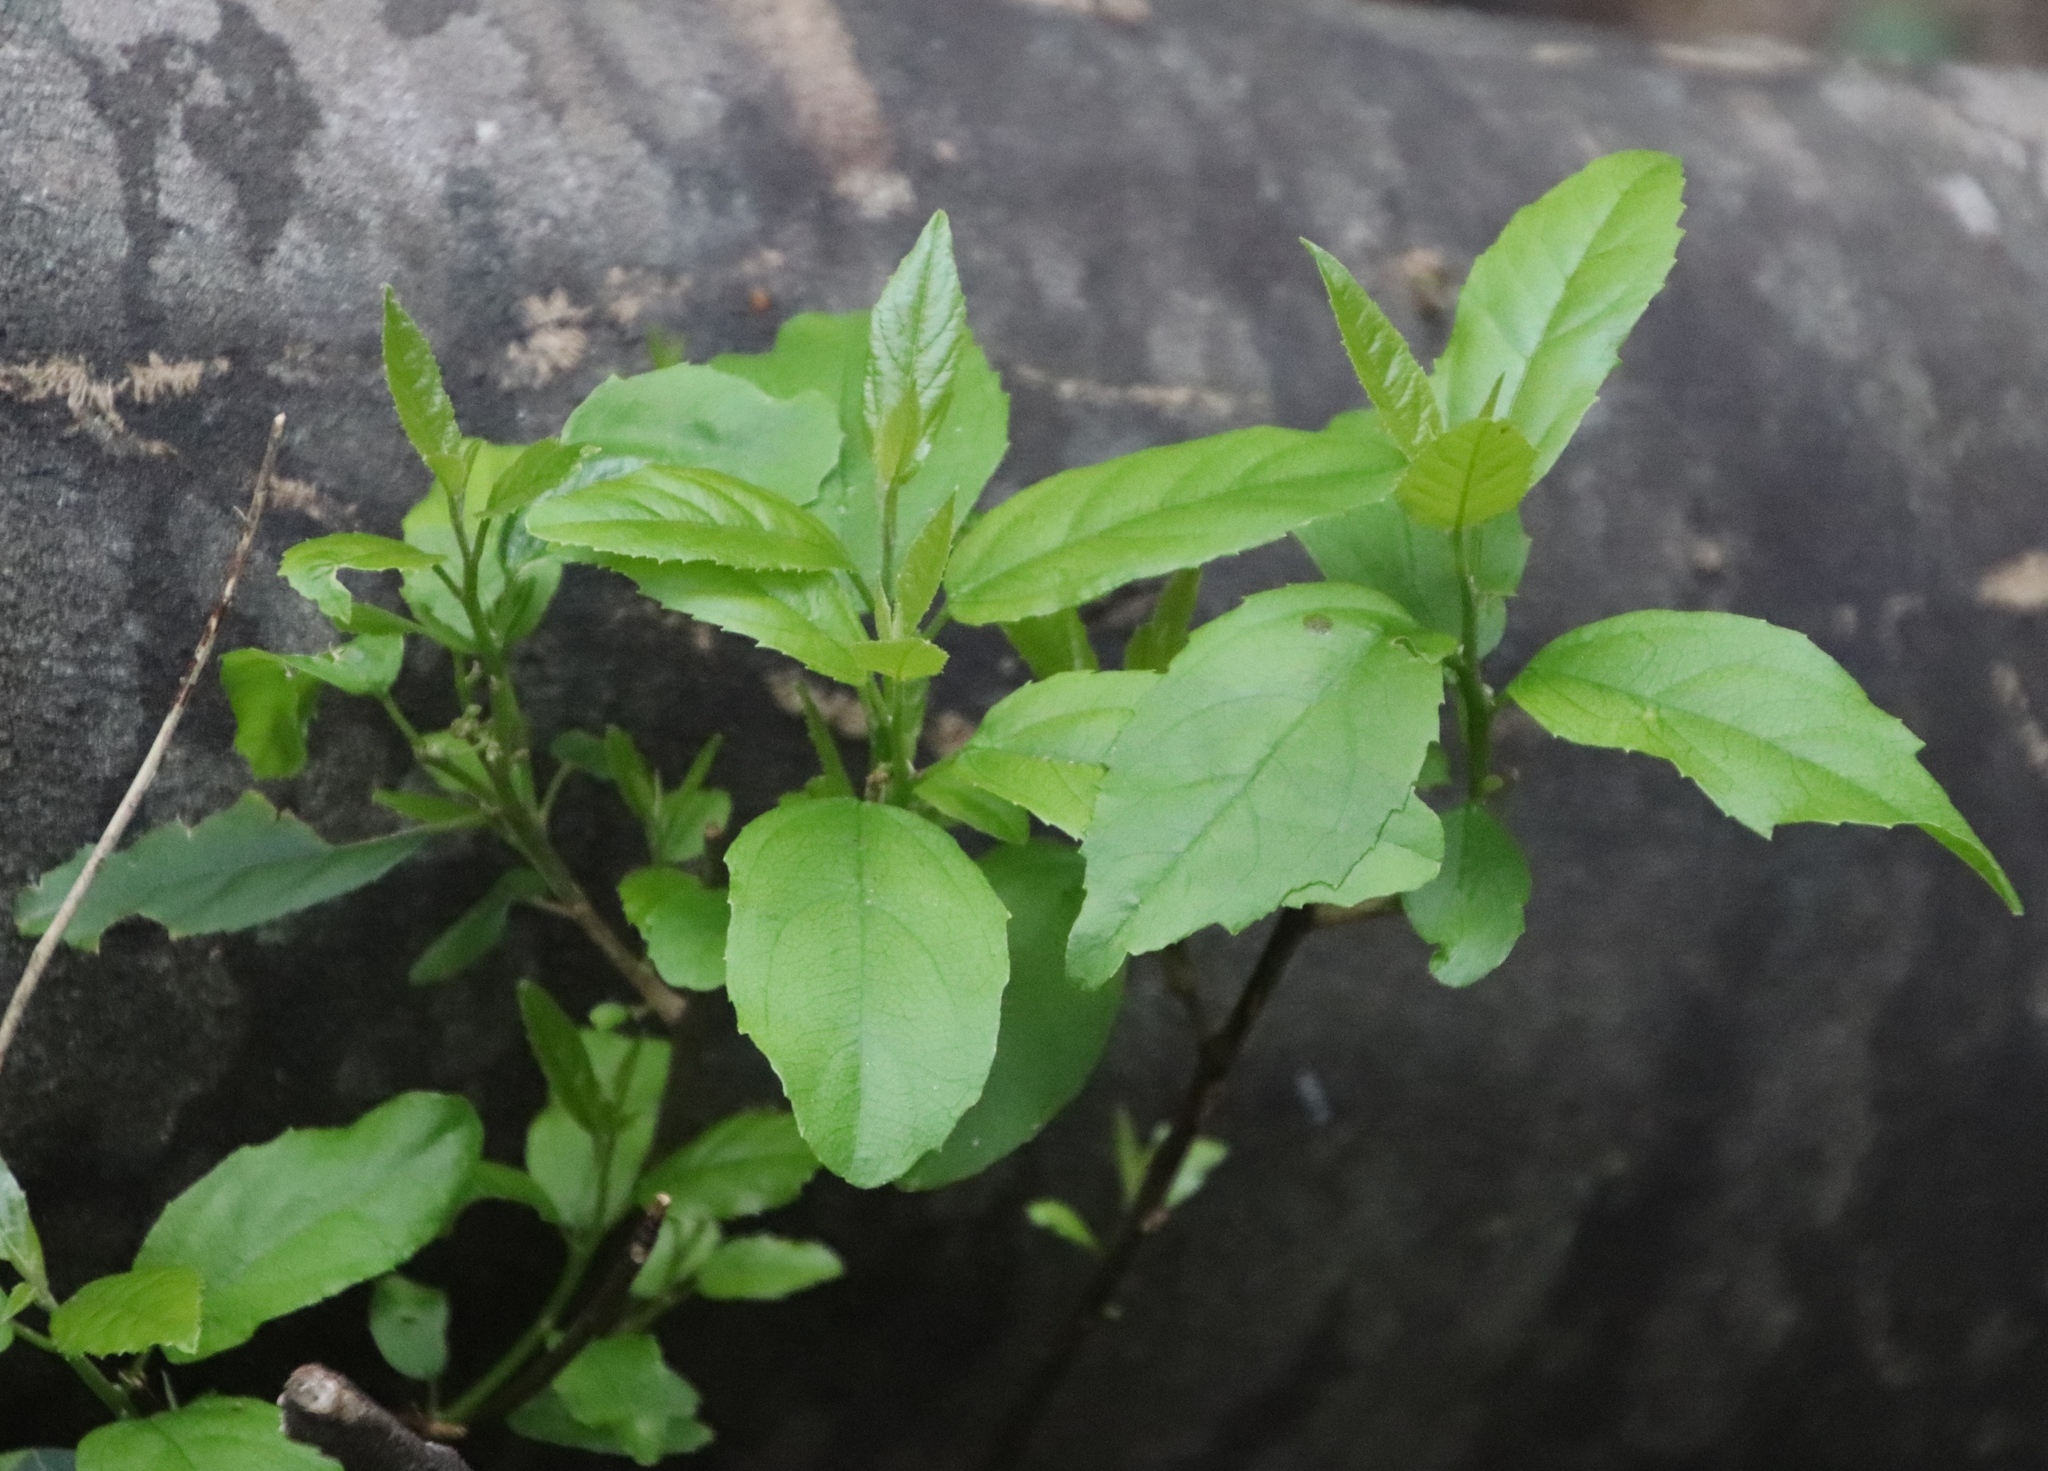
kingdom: Plantae
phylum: Tracheophyta
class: Magnoliopsida
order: Malpighiales
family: Achariaceae
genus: Kiggelaria
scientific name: Kiggelaria africana
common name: Wild peach
